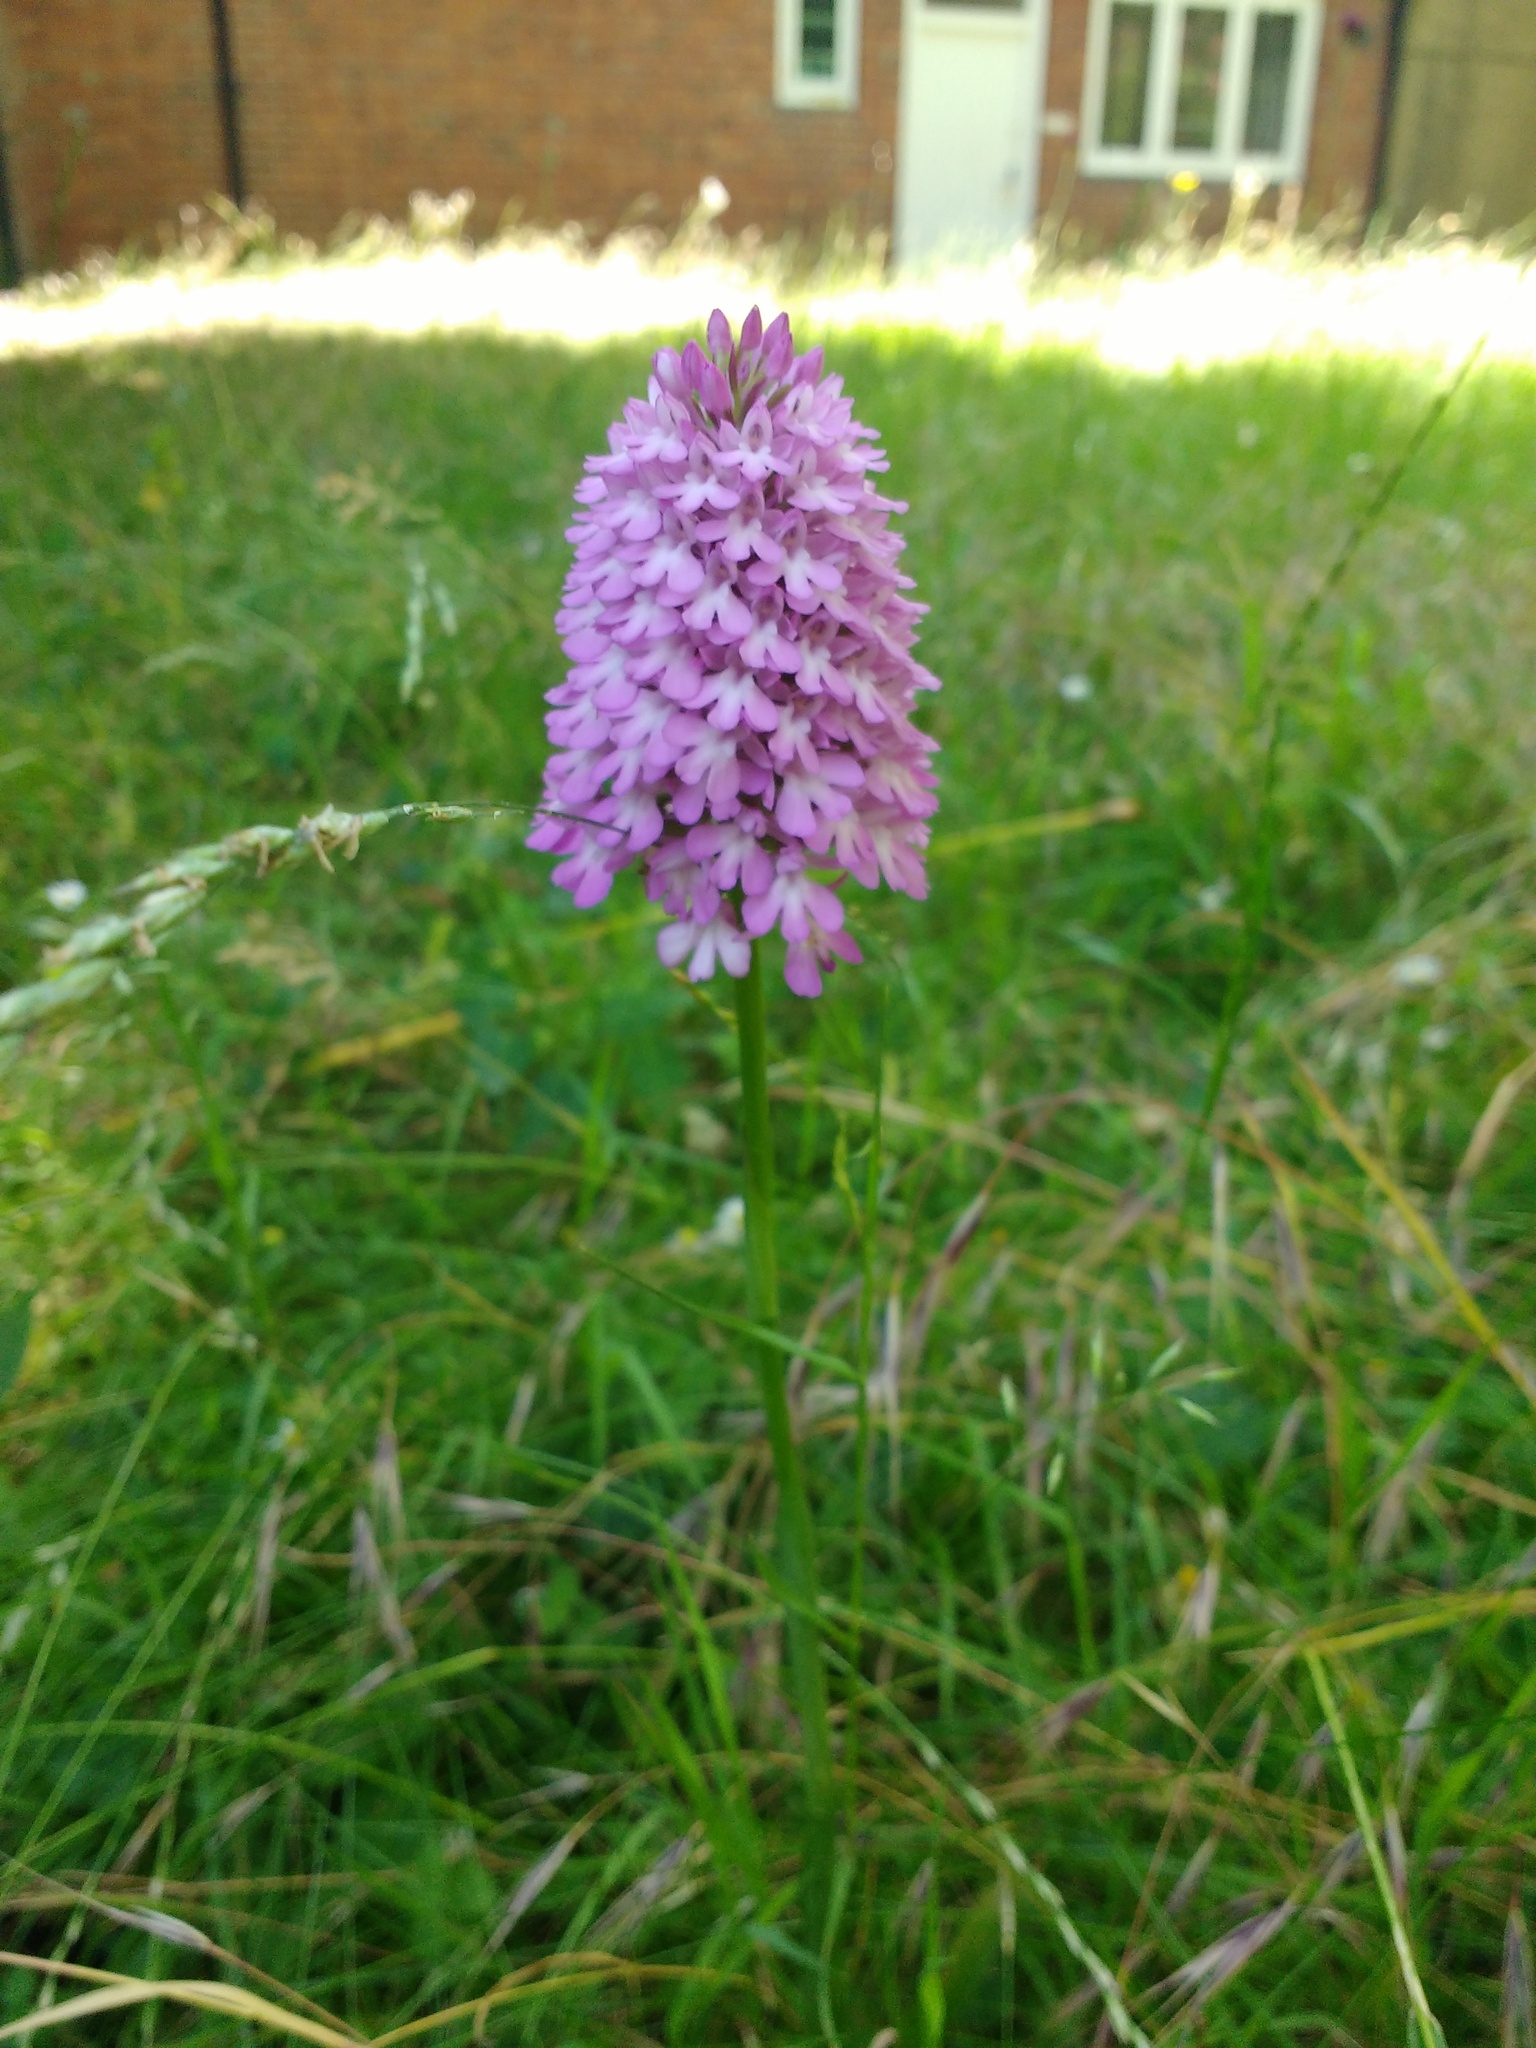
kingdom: Plantae
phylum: Tracheophyta
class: Liliopsida
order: Asparagales
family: Orchidaceae
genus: Anacamptis
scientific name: Anacamptis pyramidalis
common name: Pyramidal orchid
